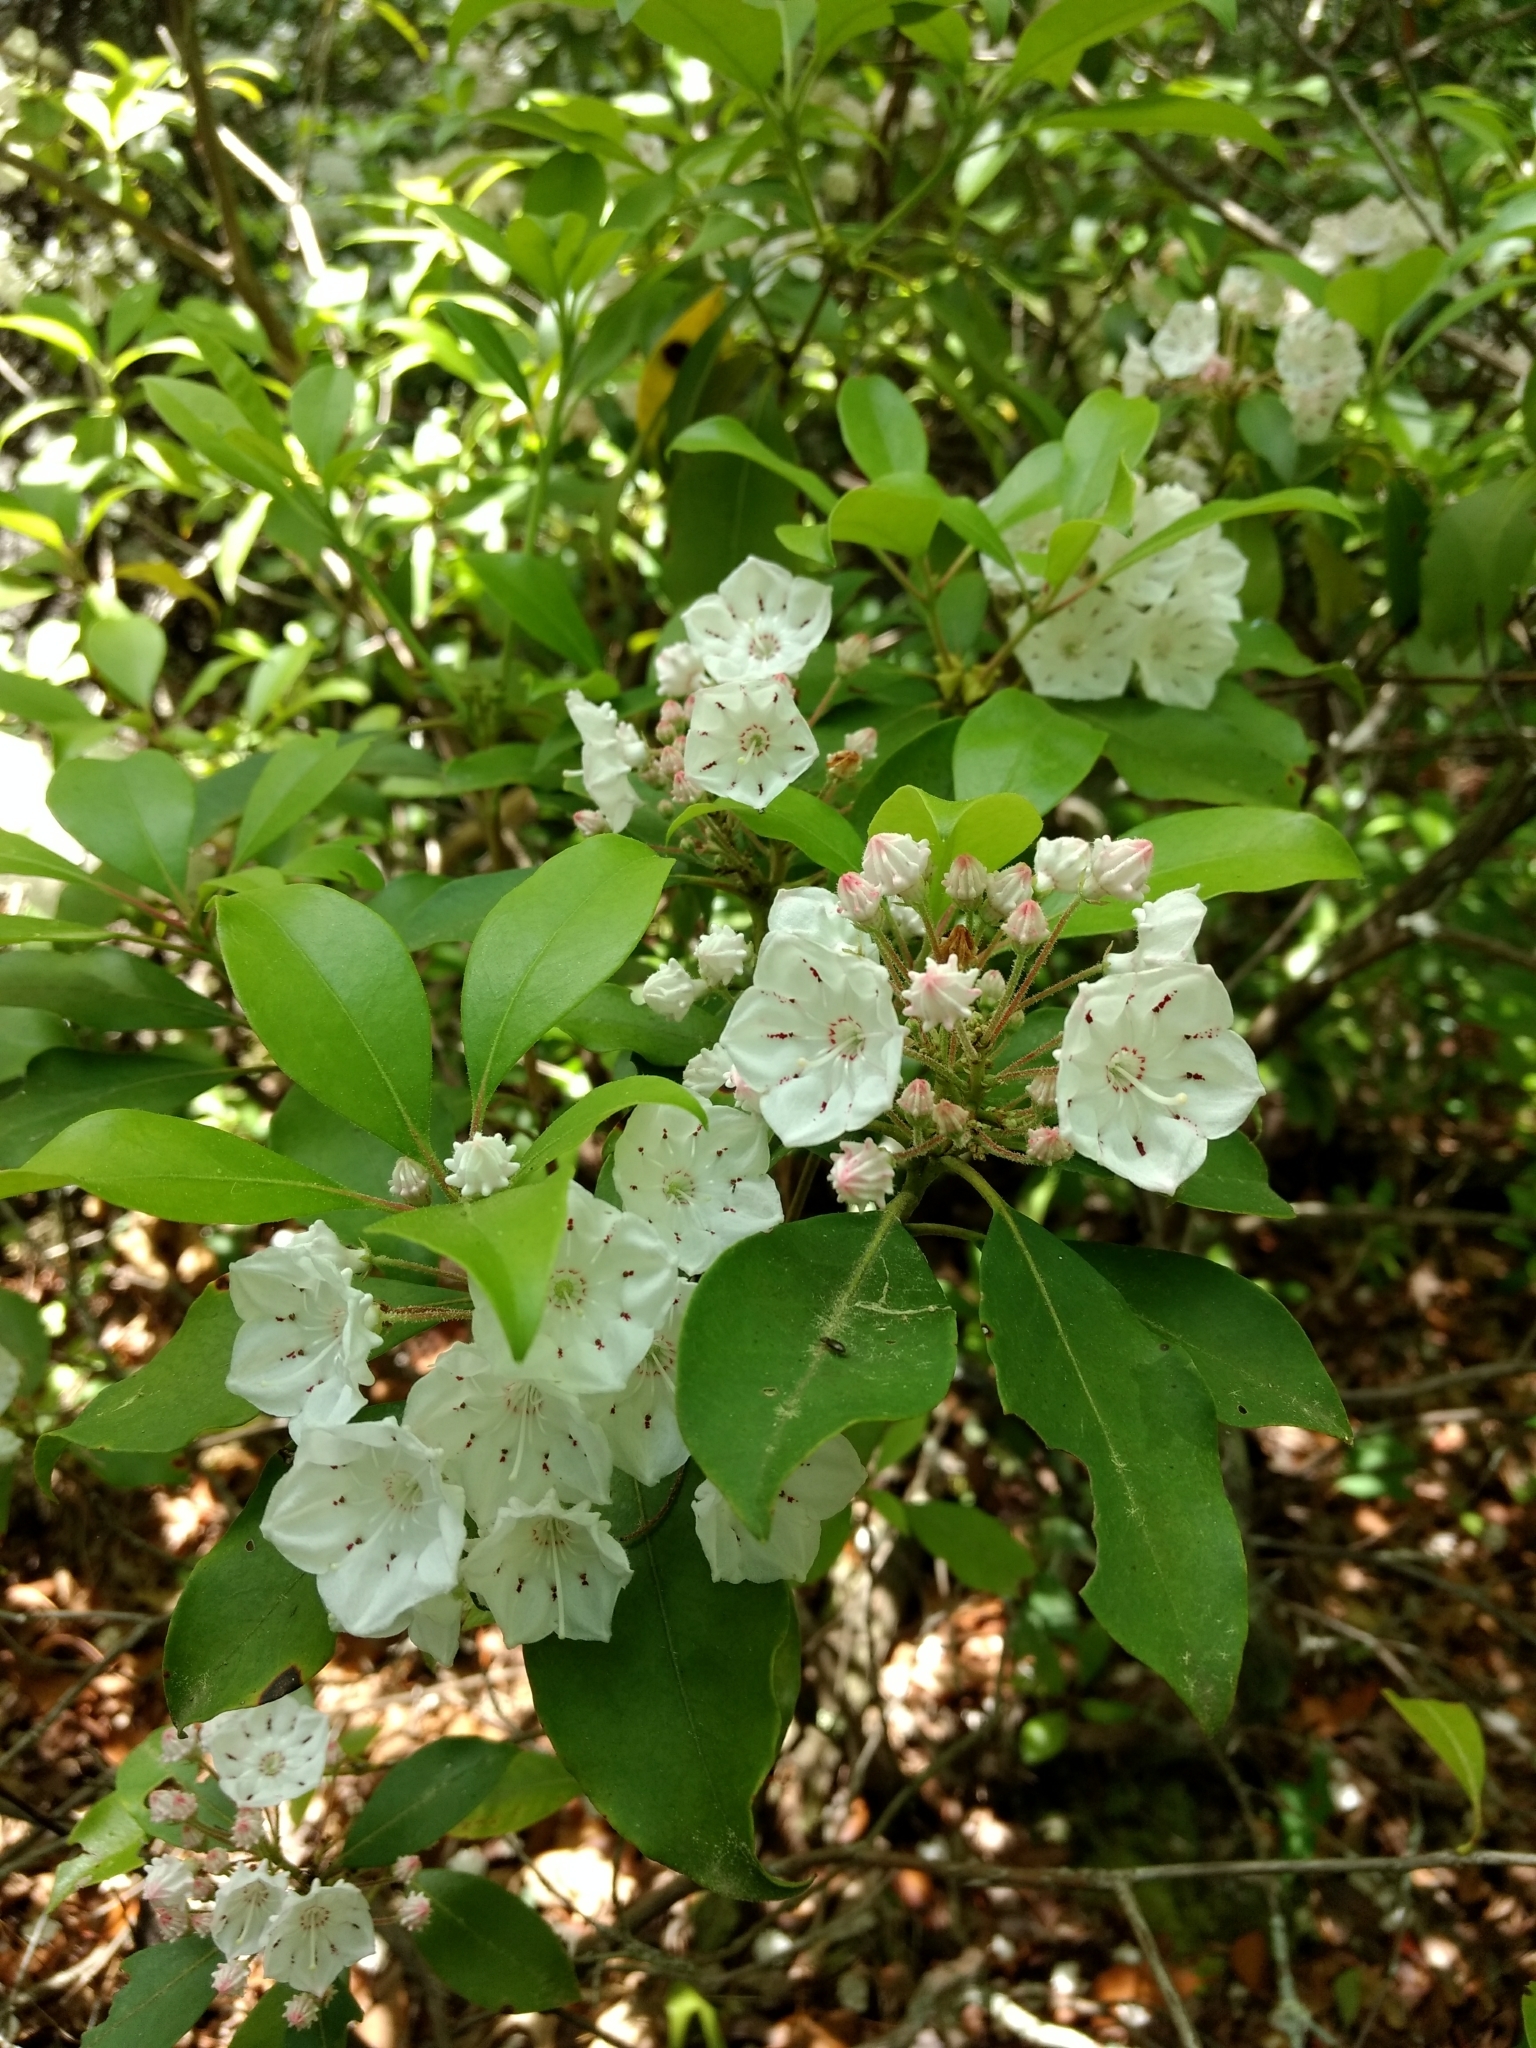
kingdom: Plantae
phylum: Tracheophyta
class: Magnoliopsida
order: Ericales
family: Ericaceae
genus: Kalmia
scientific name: Kalmia latifolia
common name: Mountain-laurel
